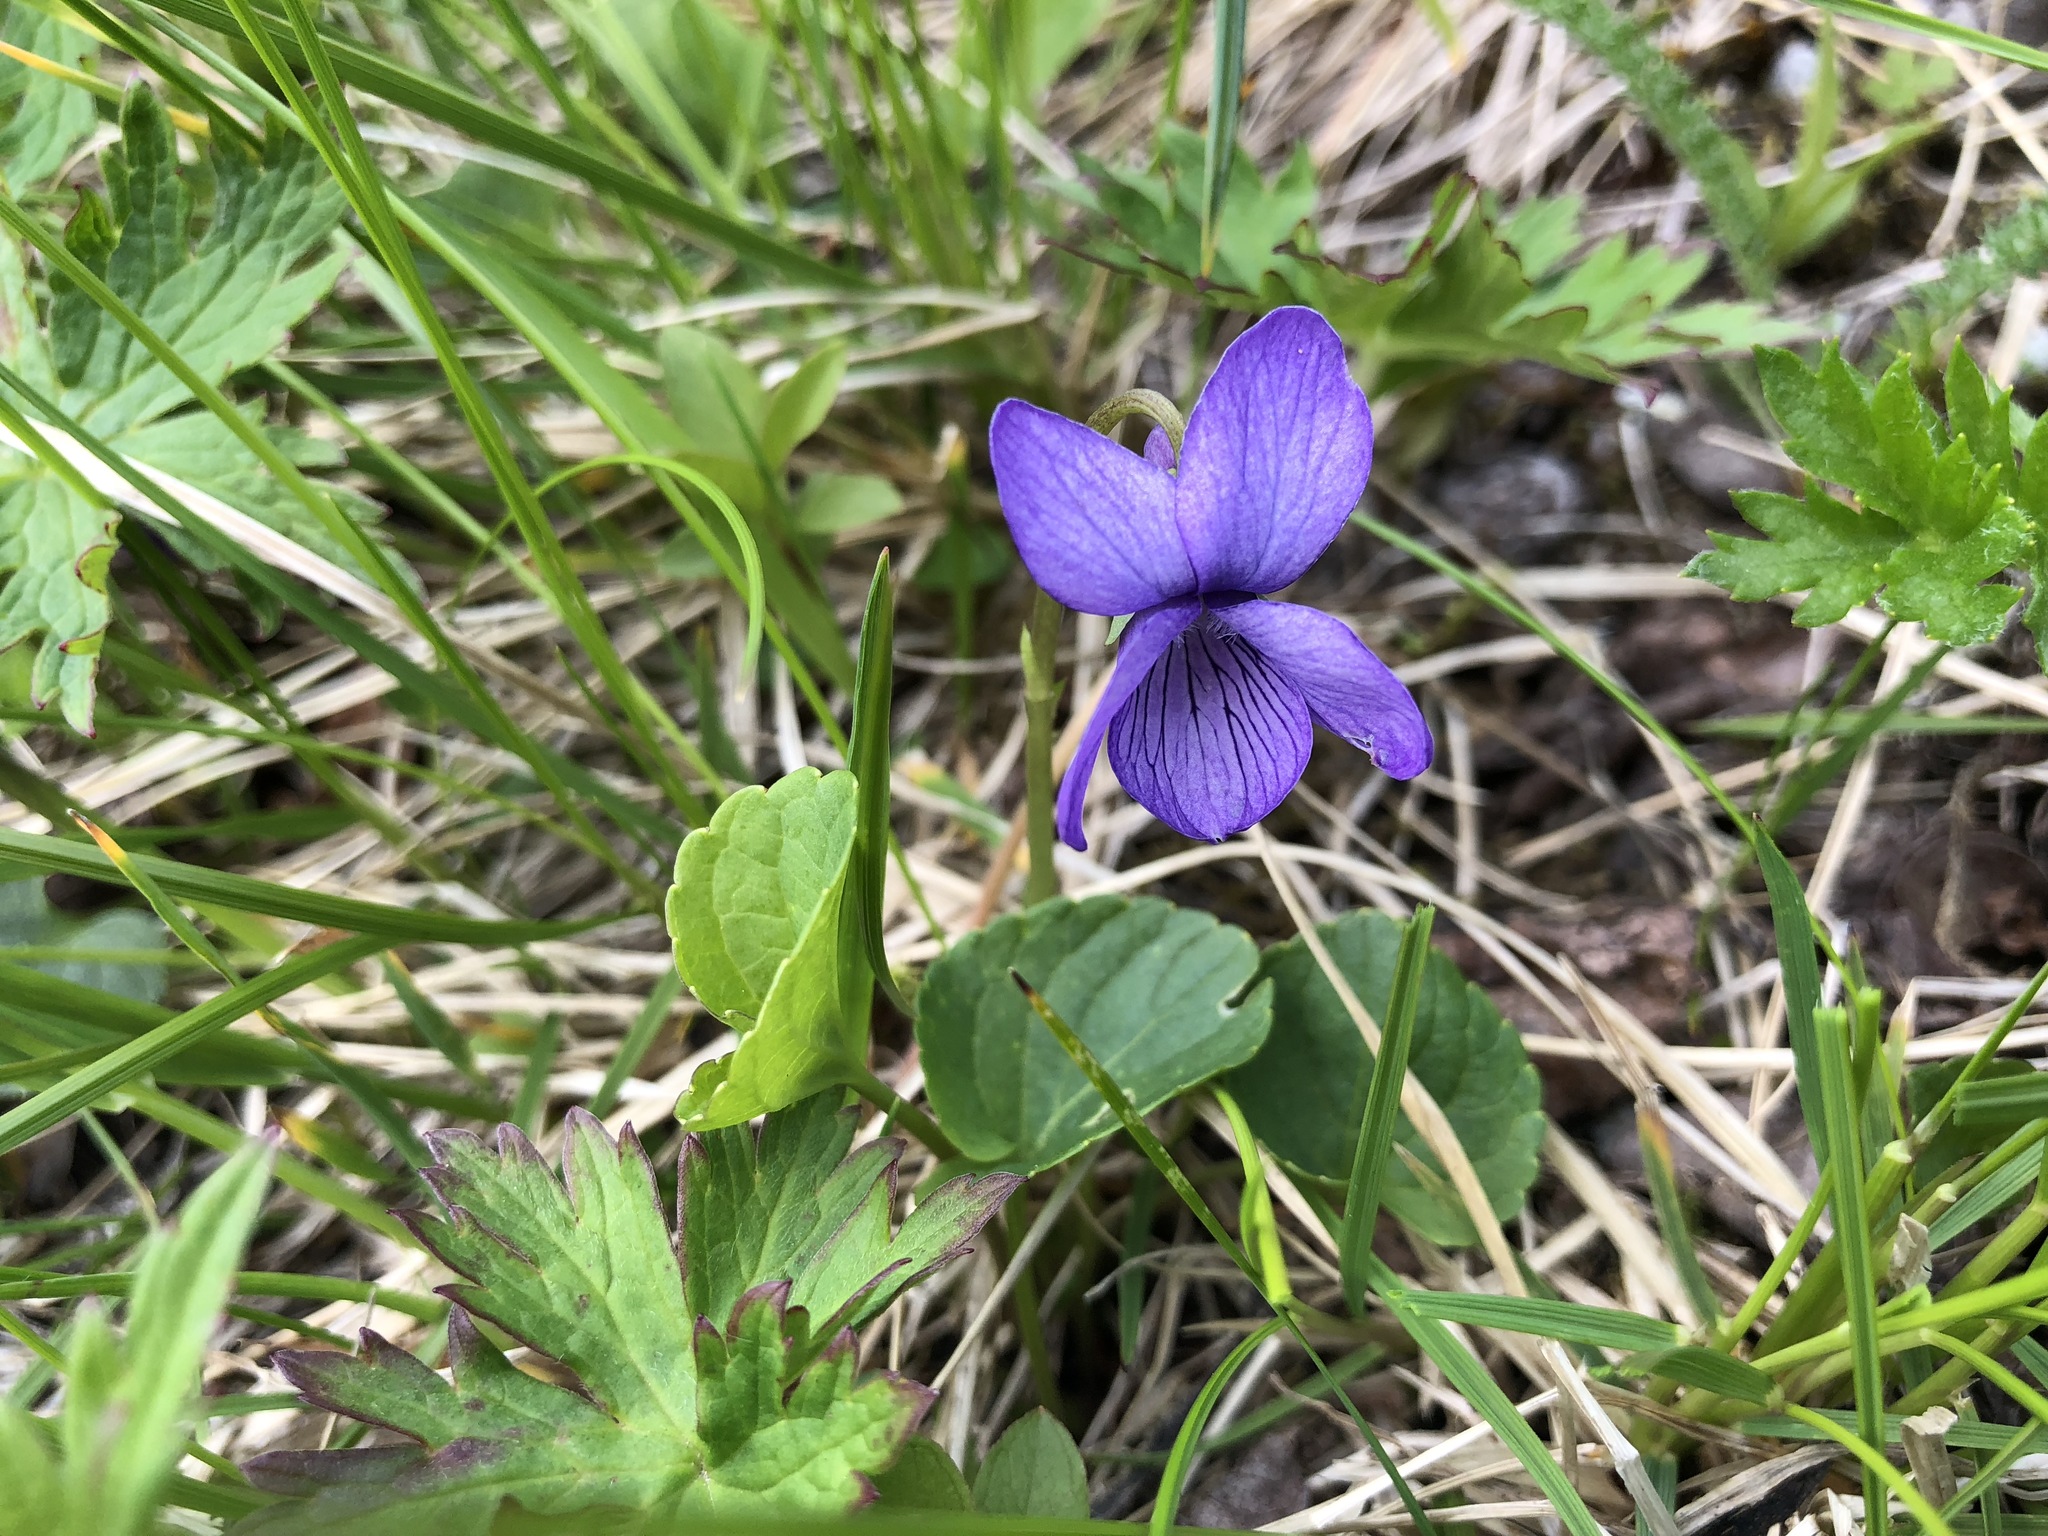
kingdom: Plantae
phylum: Tracheophyta
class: Magnoliopsida
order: Malpighiales
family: Violaceae
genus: Viola
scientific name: Viola langsdorffii
